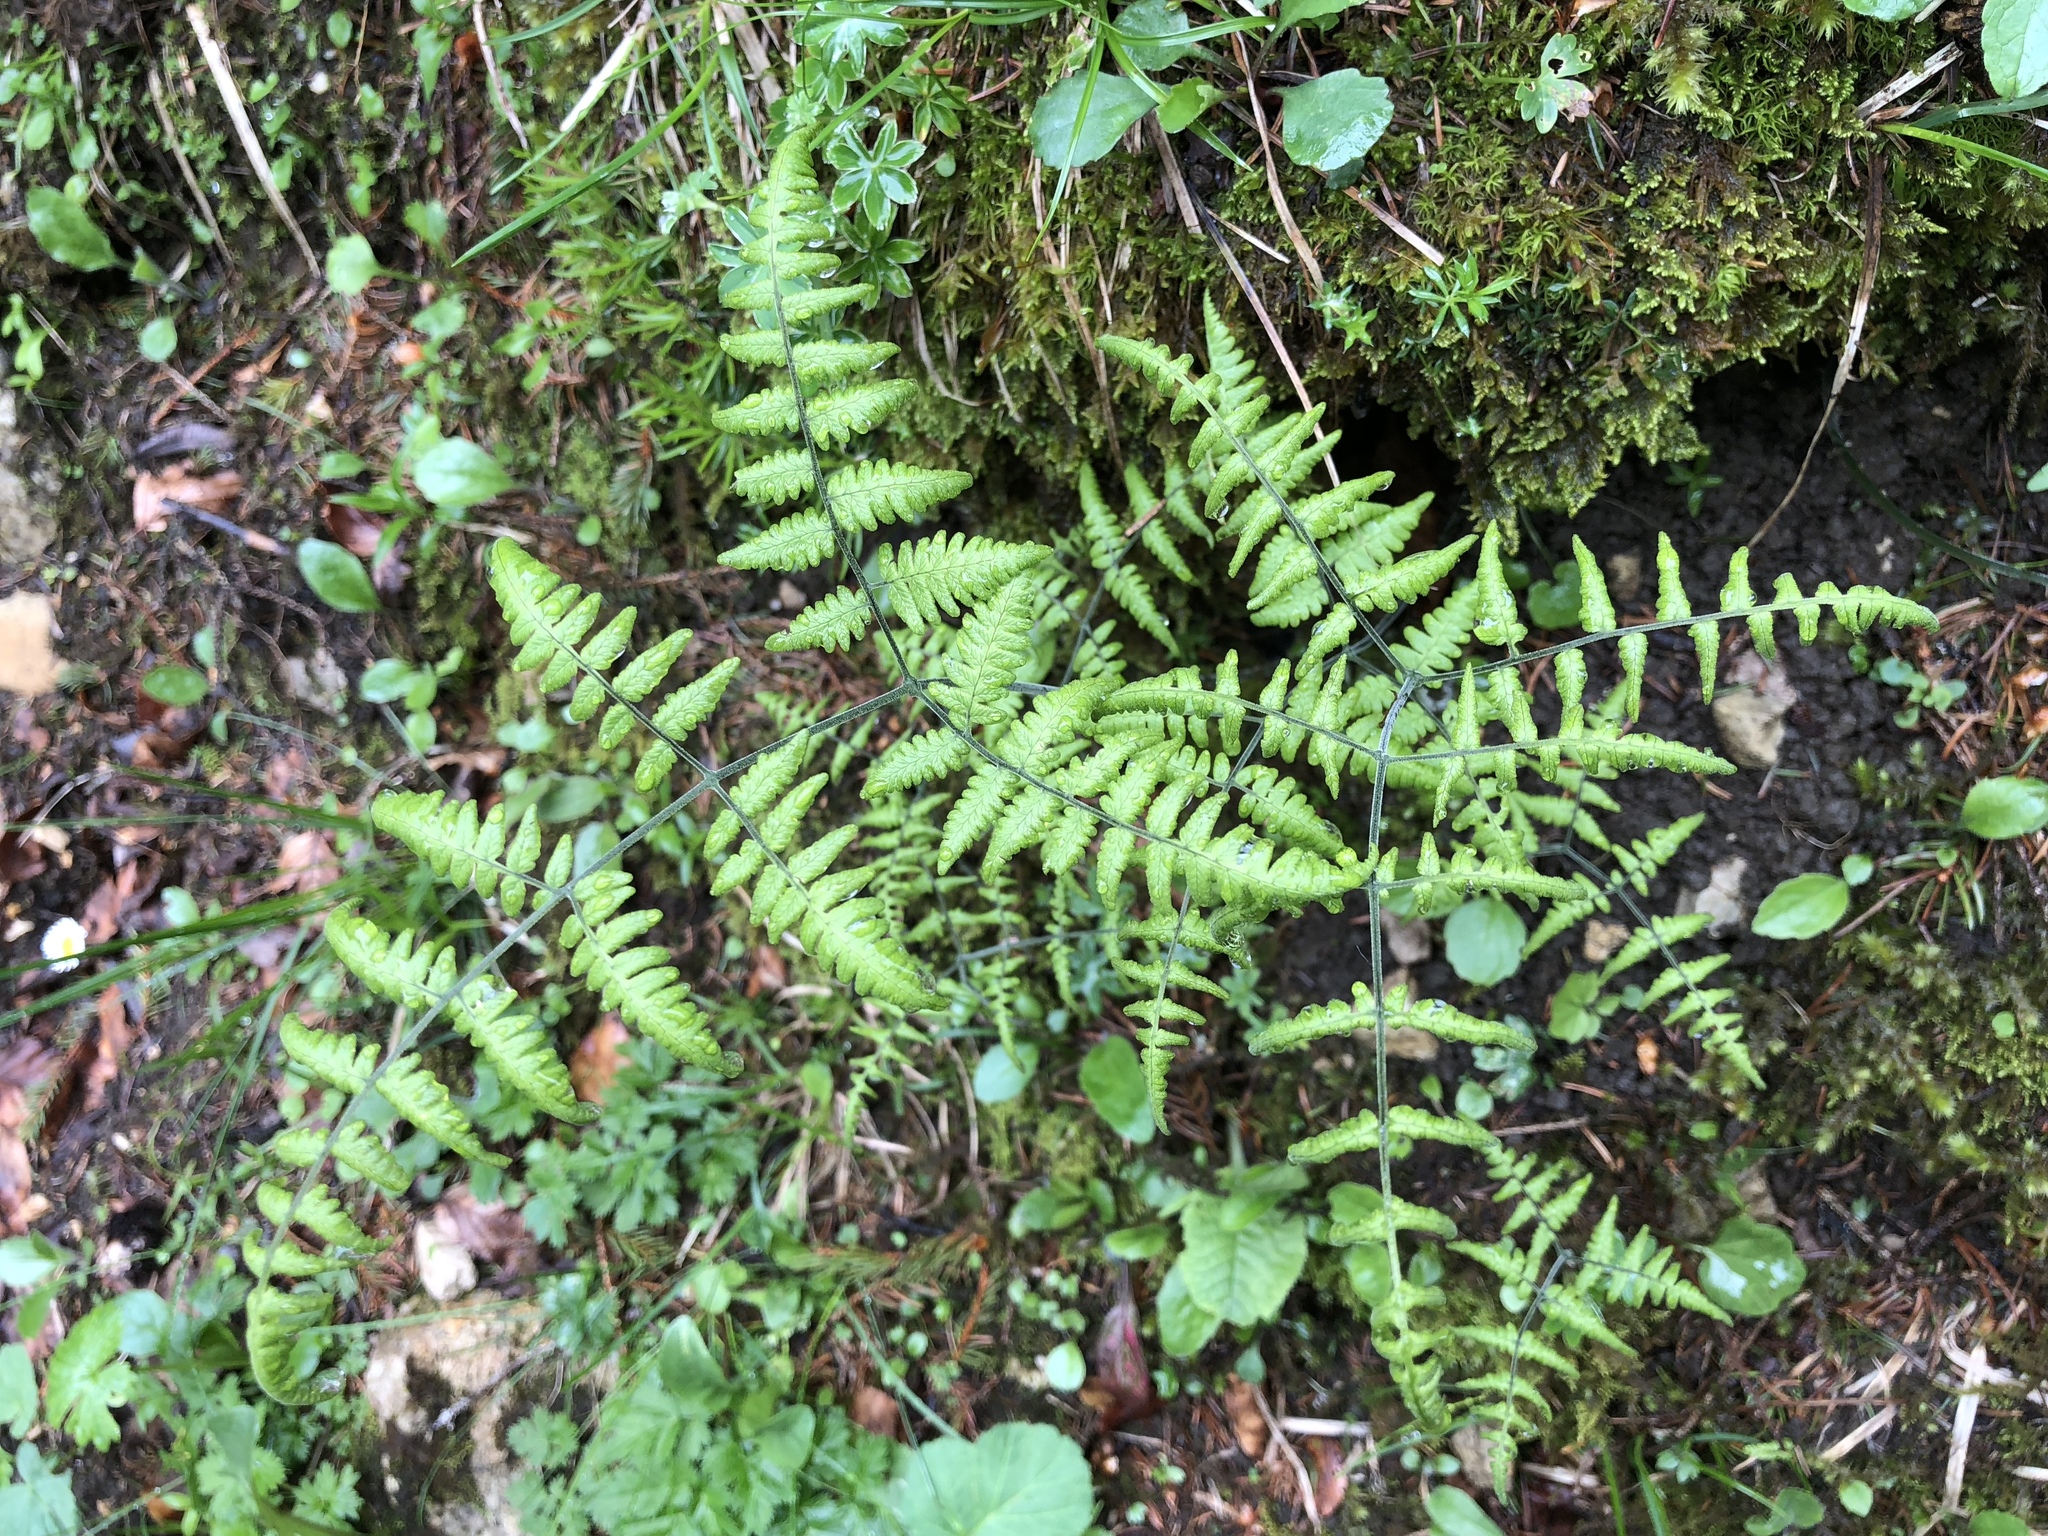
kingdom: Plantae
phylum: Tracheophyta
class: Polypodiopsida
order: Polypodiales
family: Cystopteridaceae
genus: Gymnocarpium
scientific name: Gymnocarpium robertianum
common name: Limestone fern
